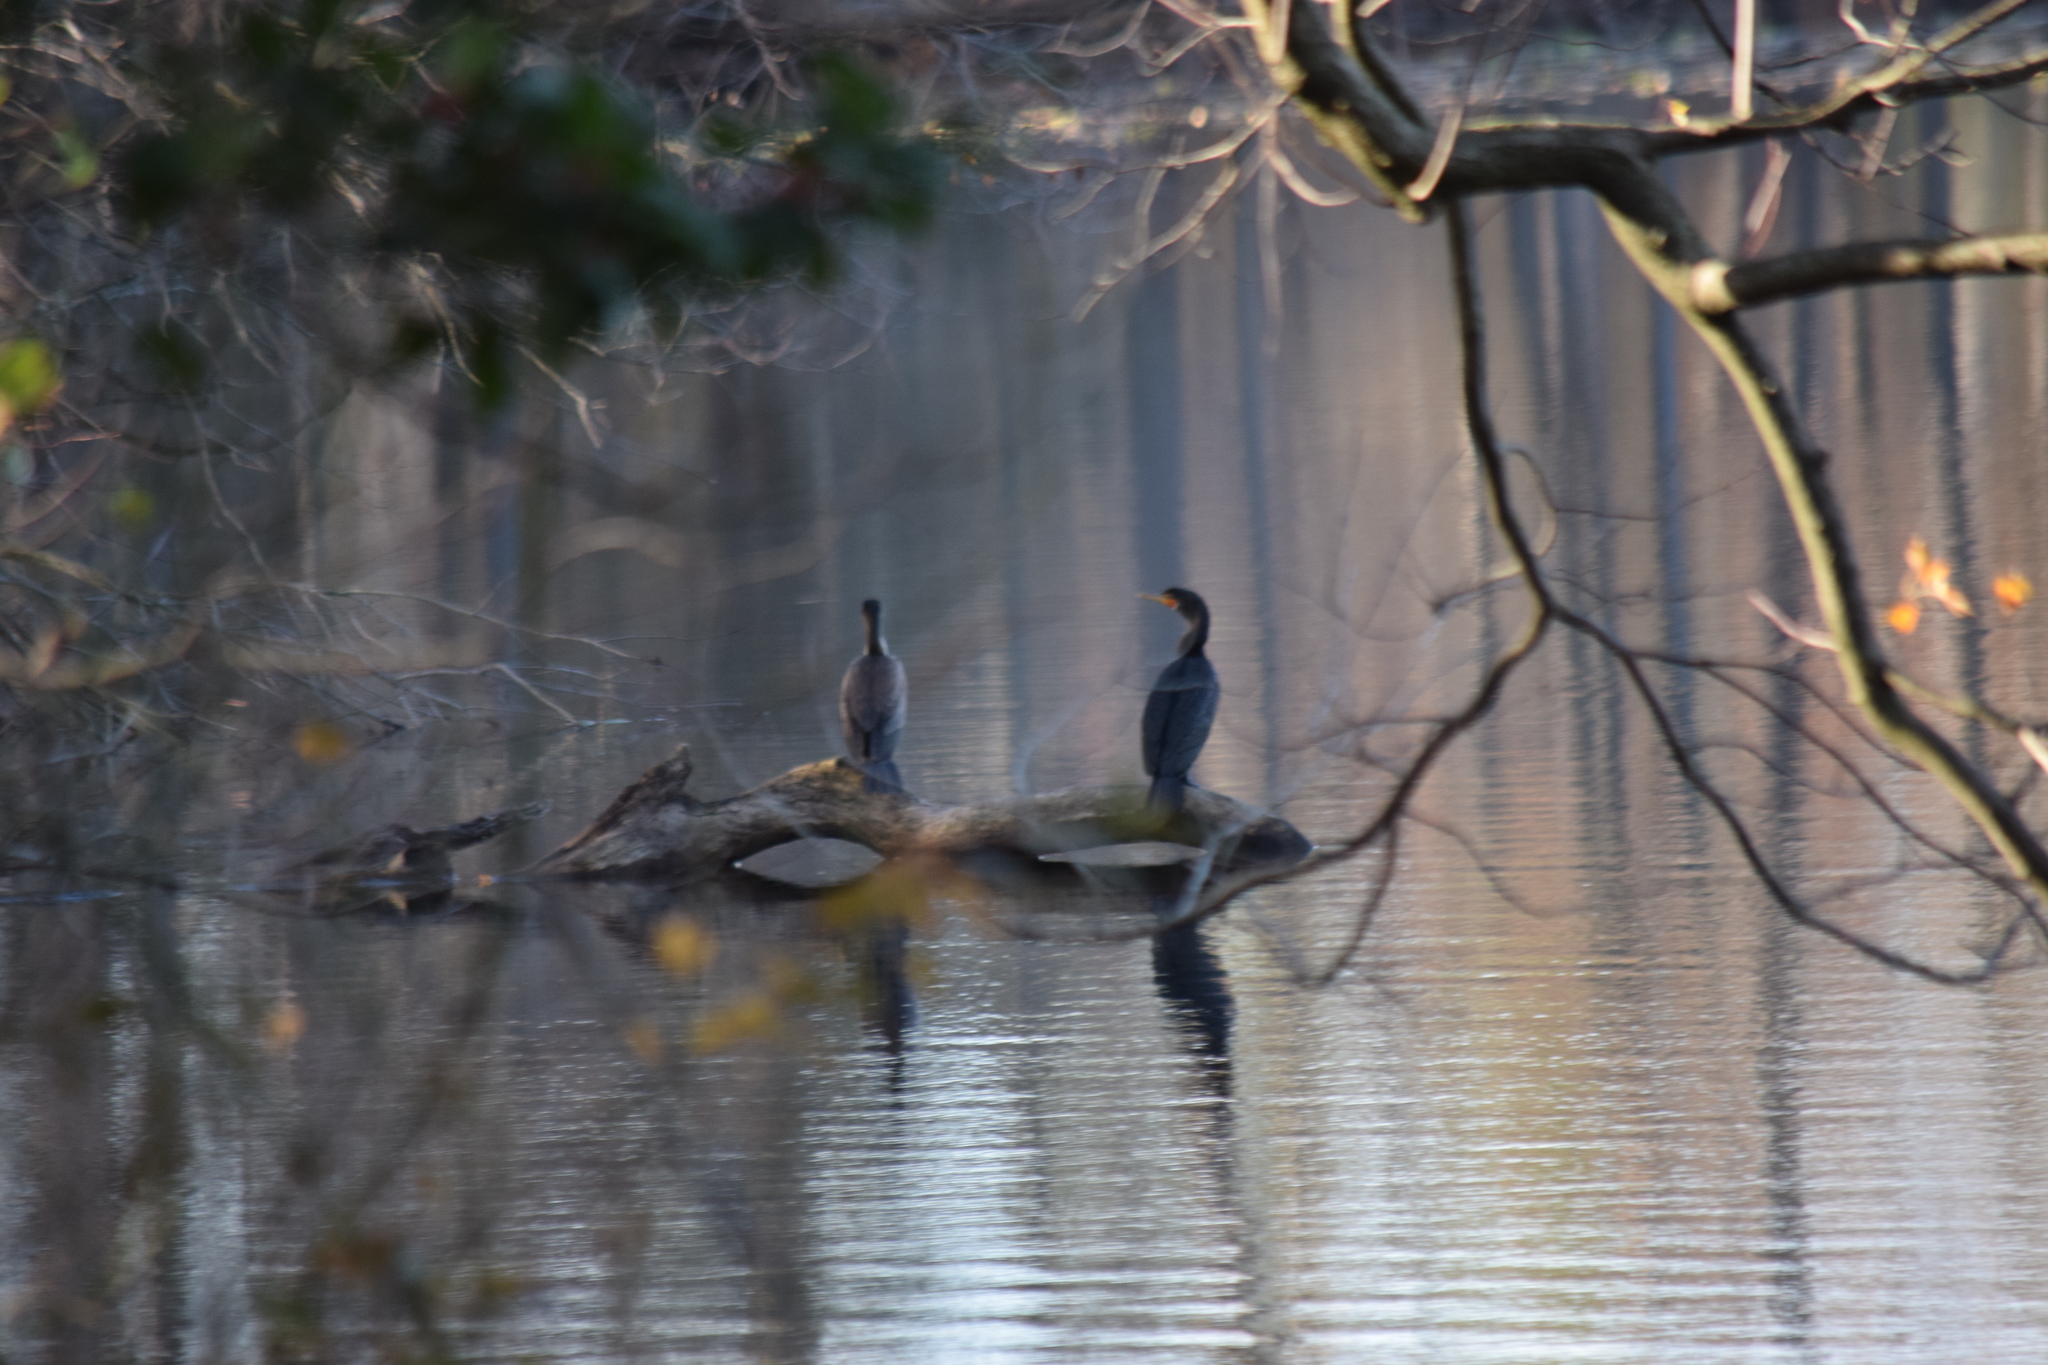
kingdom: Animalia
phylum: Chordata
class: Aves
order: Suliformes
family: Phalacrocoracidae
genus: Phalacrocorax
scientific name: Phalacrocorax auritus
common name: Double-crested cormorant
